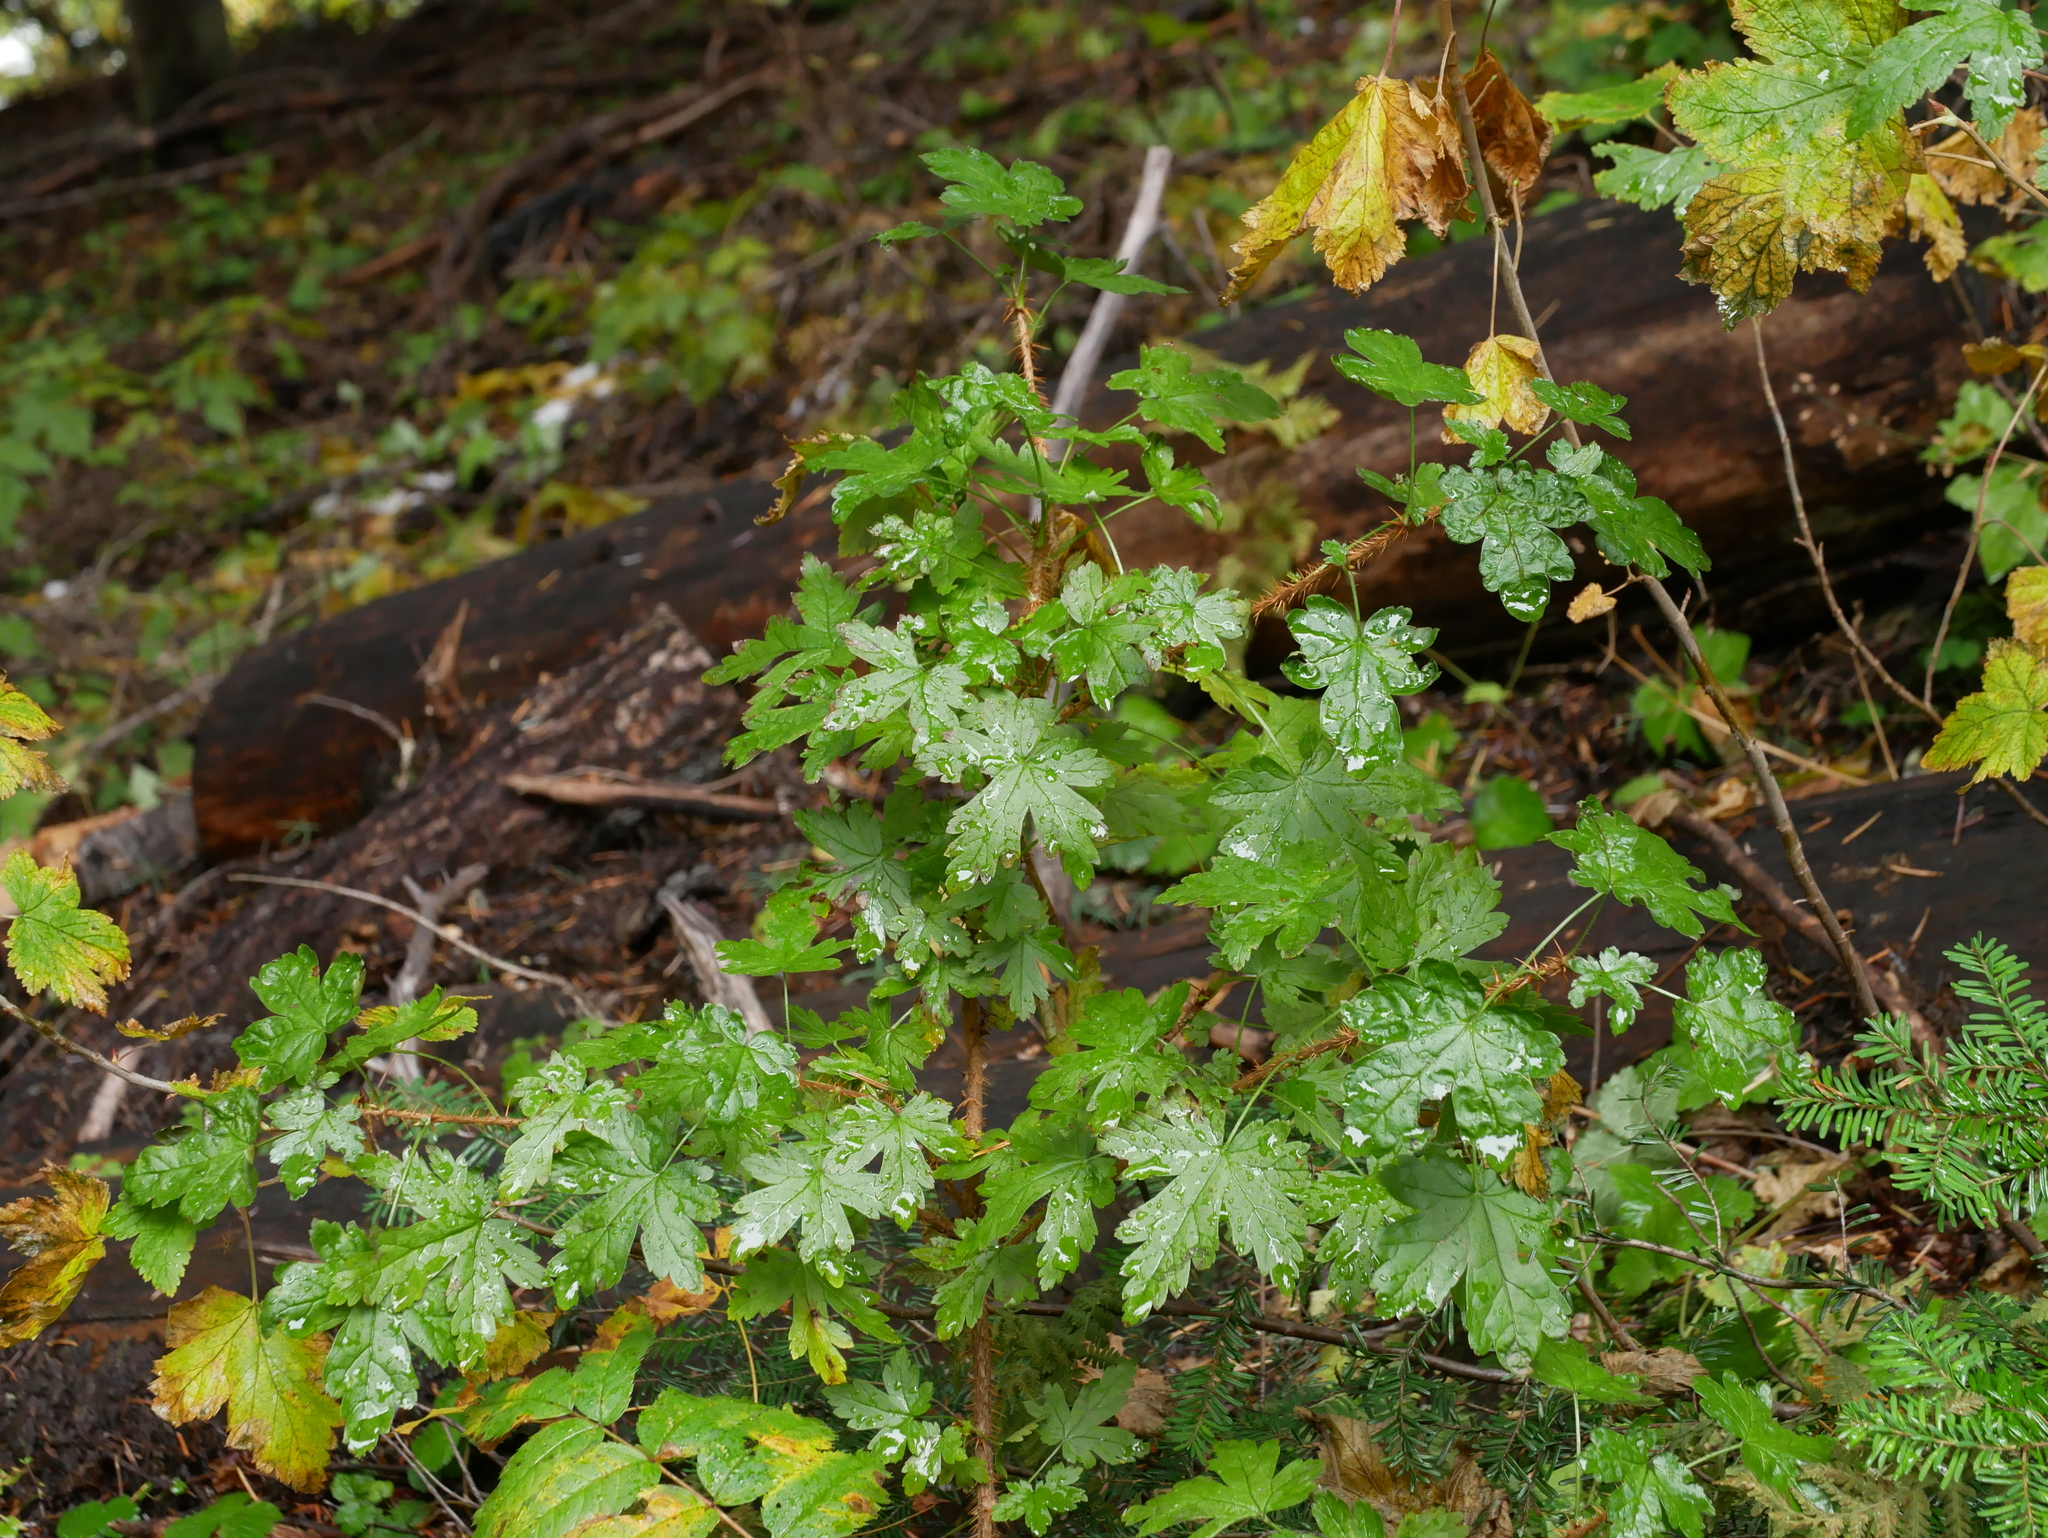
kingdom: Plantae
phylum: Tracheophyta
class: Magnoliopsida
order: Saxifragales
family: Grossulariaceae
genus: Ribes
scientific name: Ribes lacustre
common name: Black gooseberry
